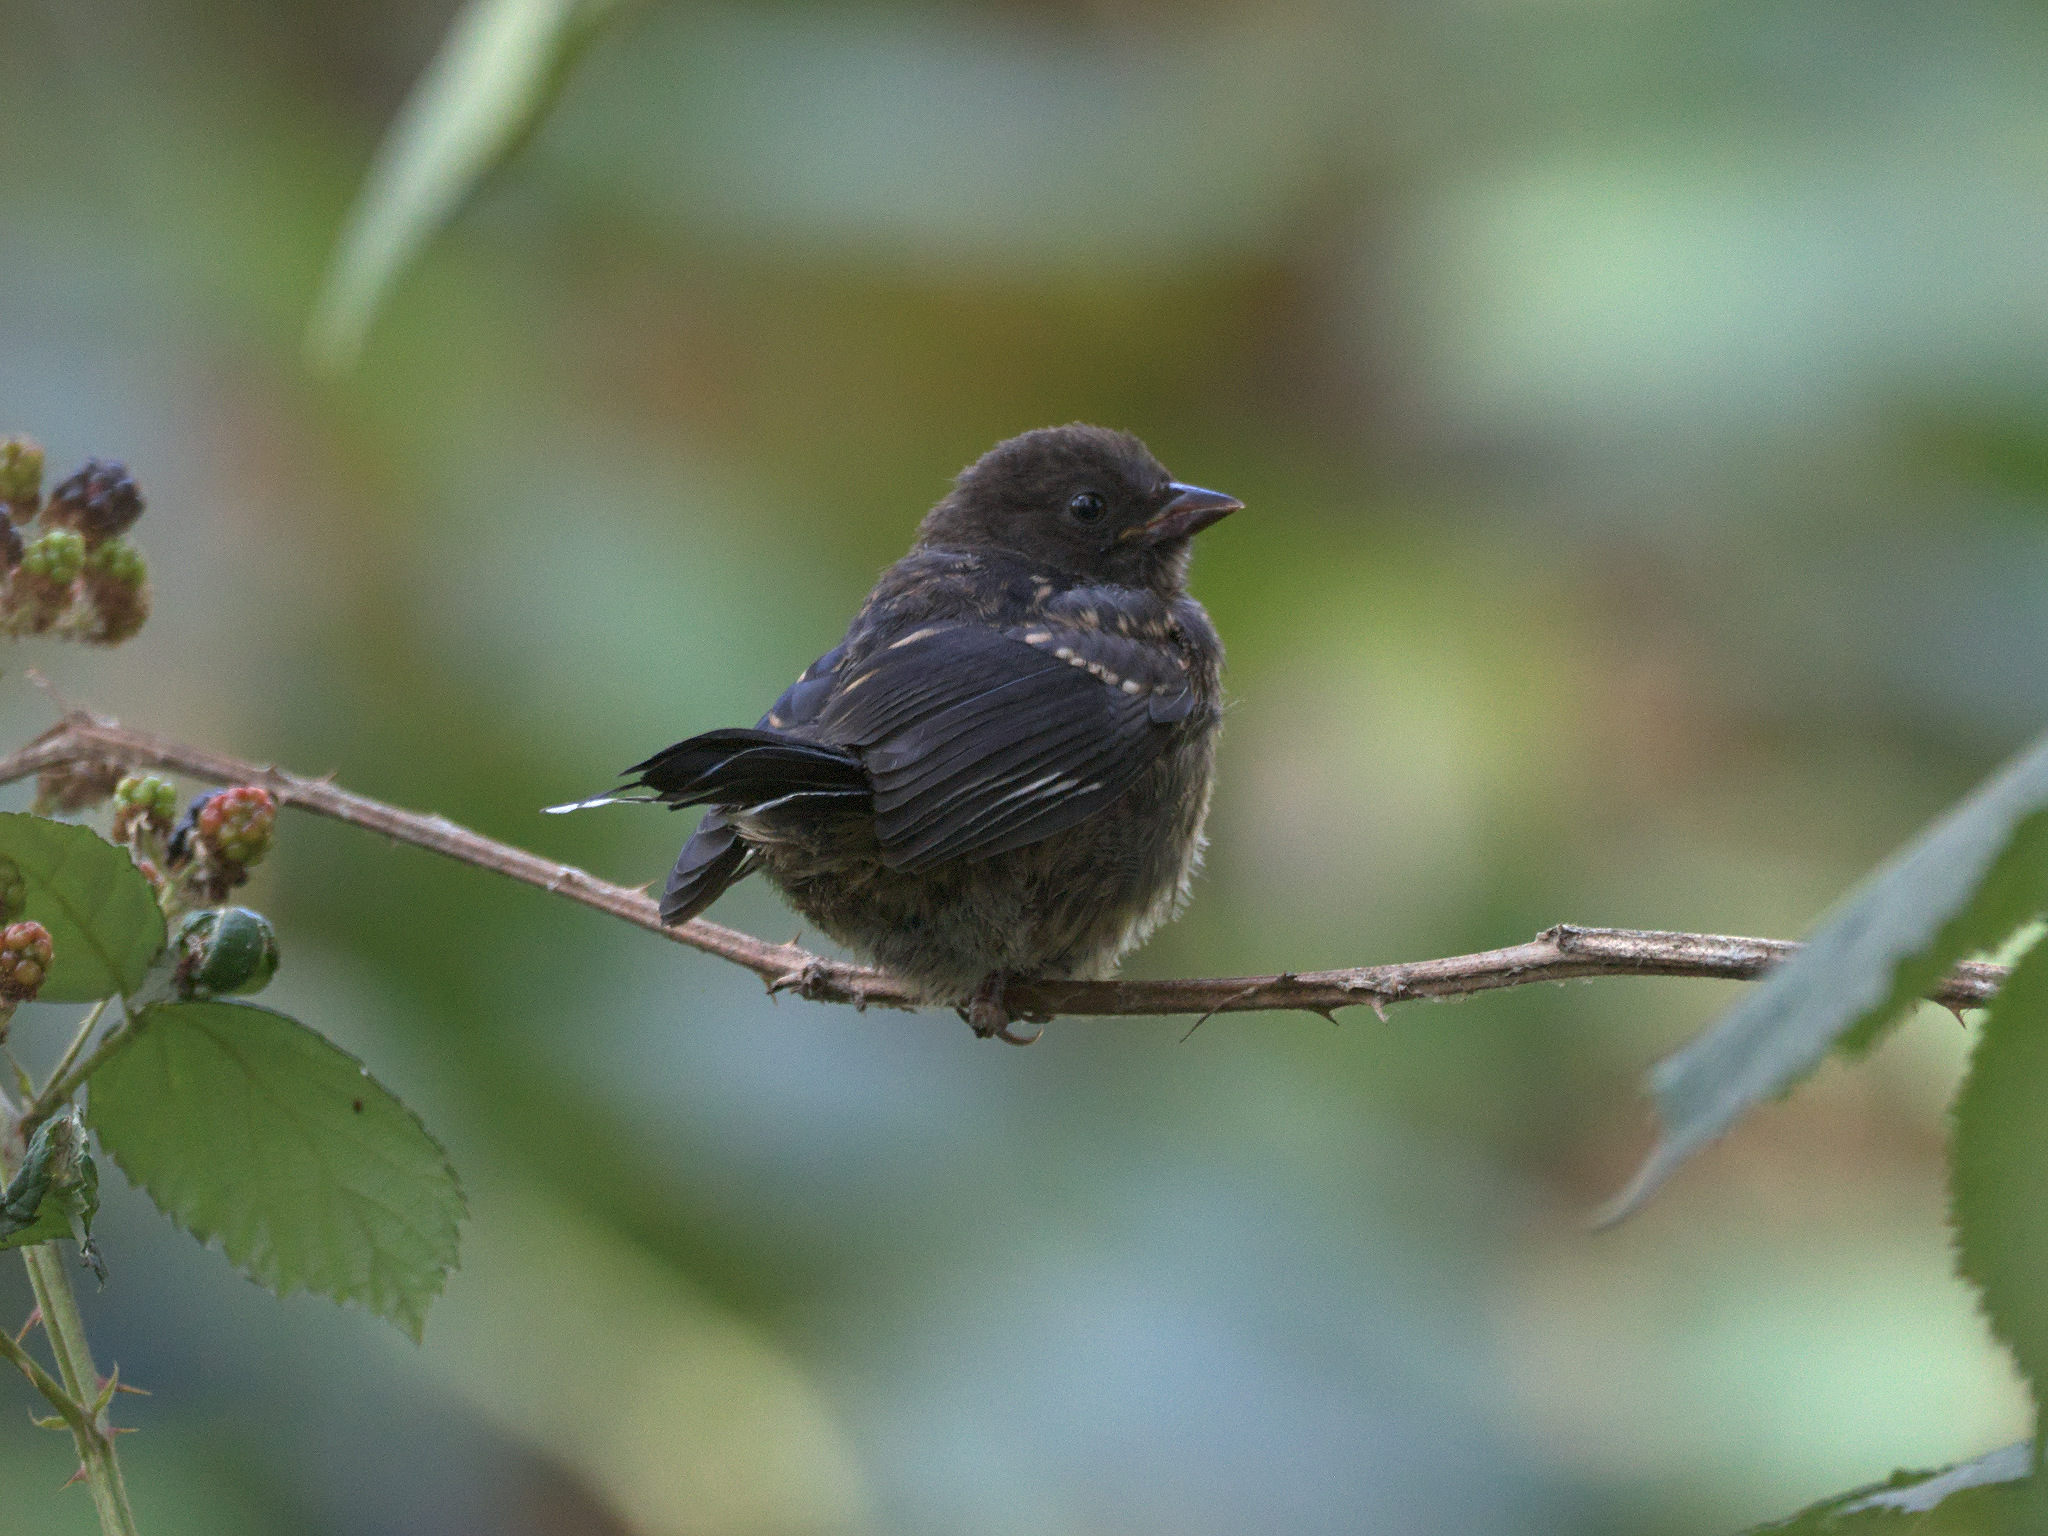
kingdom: Animalia
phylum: Chordata
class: Aves
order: Passeriformes
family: Passerellidae
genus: Pipilo
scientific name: Pipilo maculatus
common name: Spotted towhee
